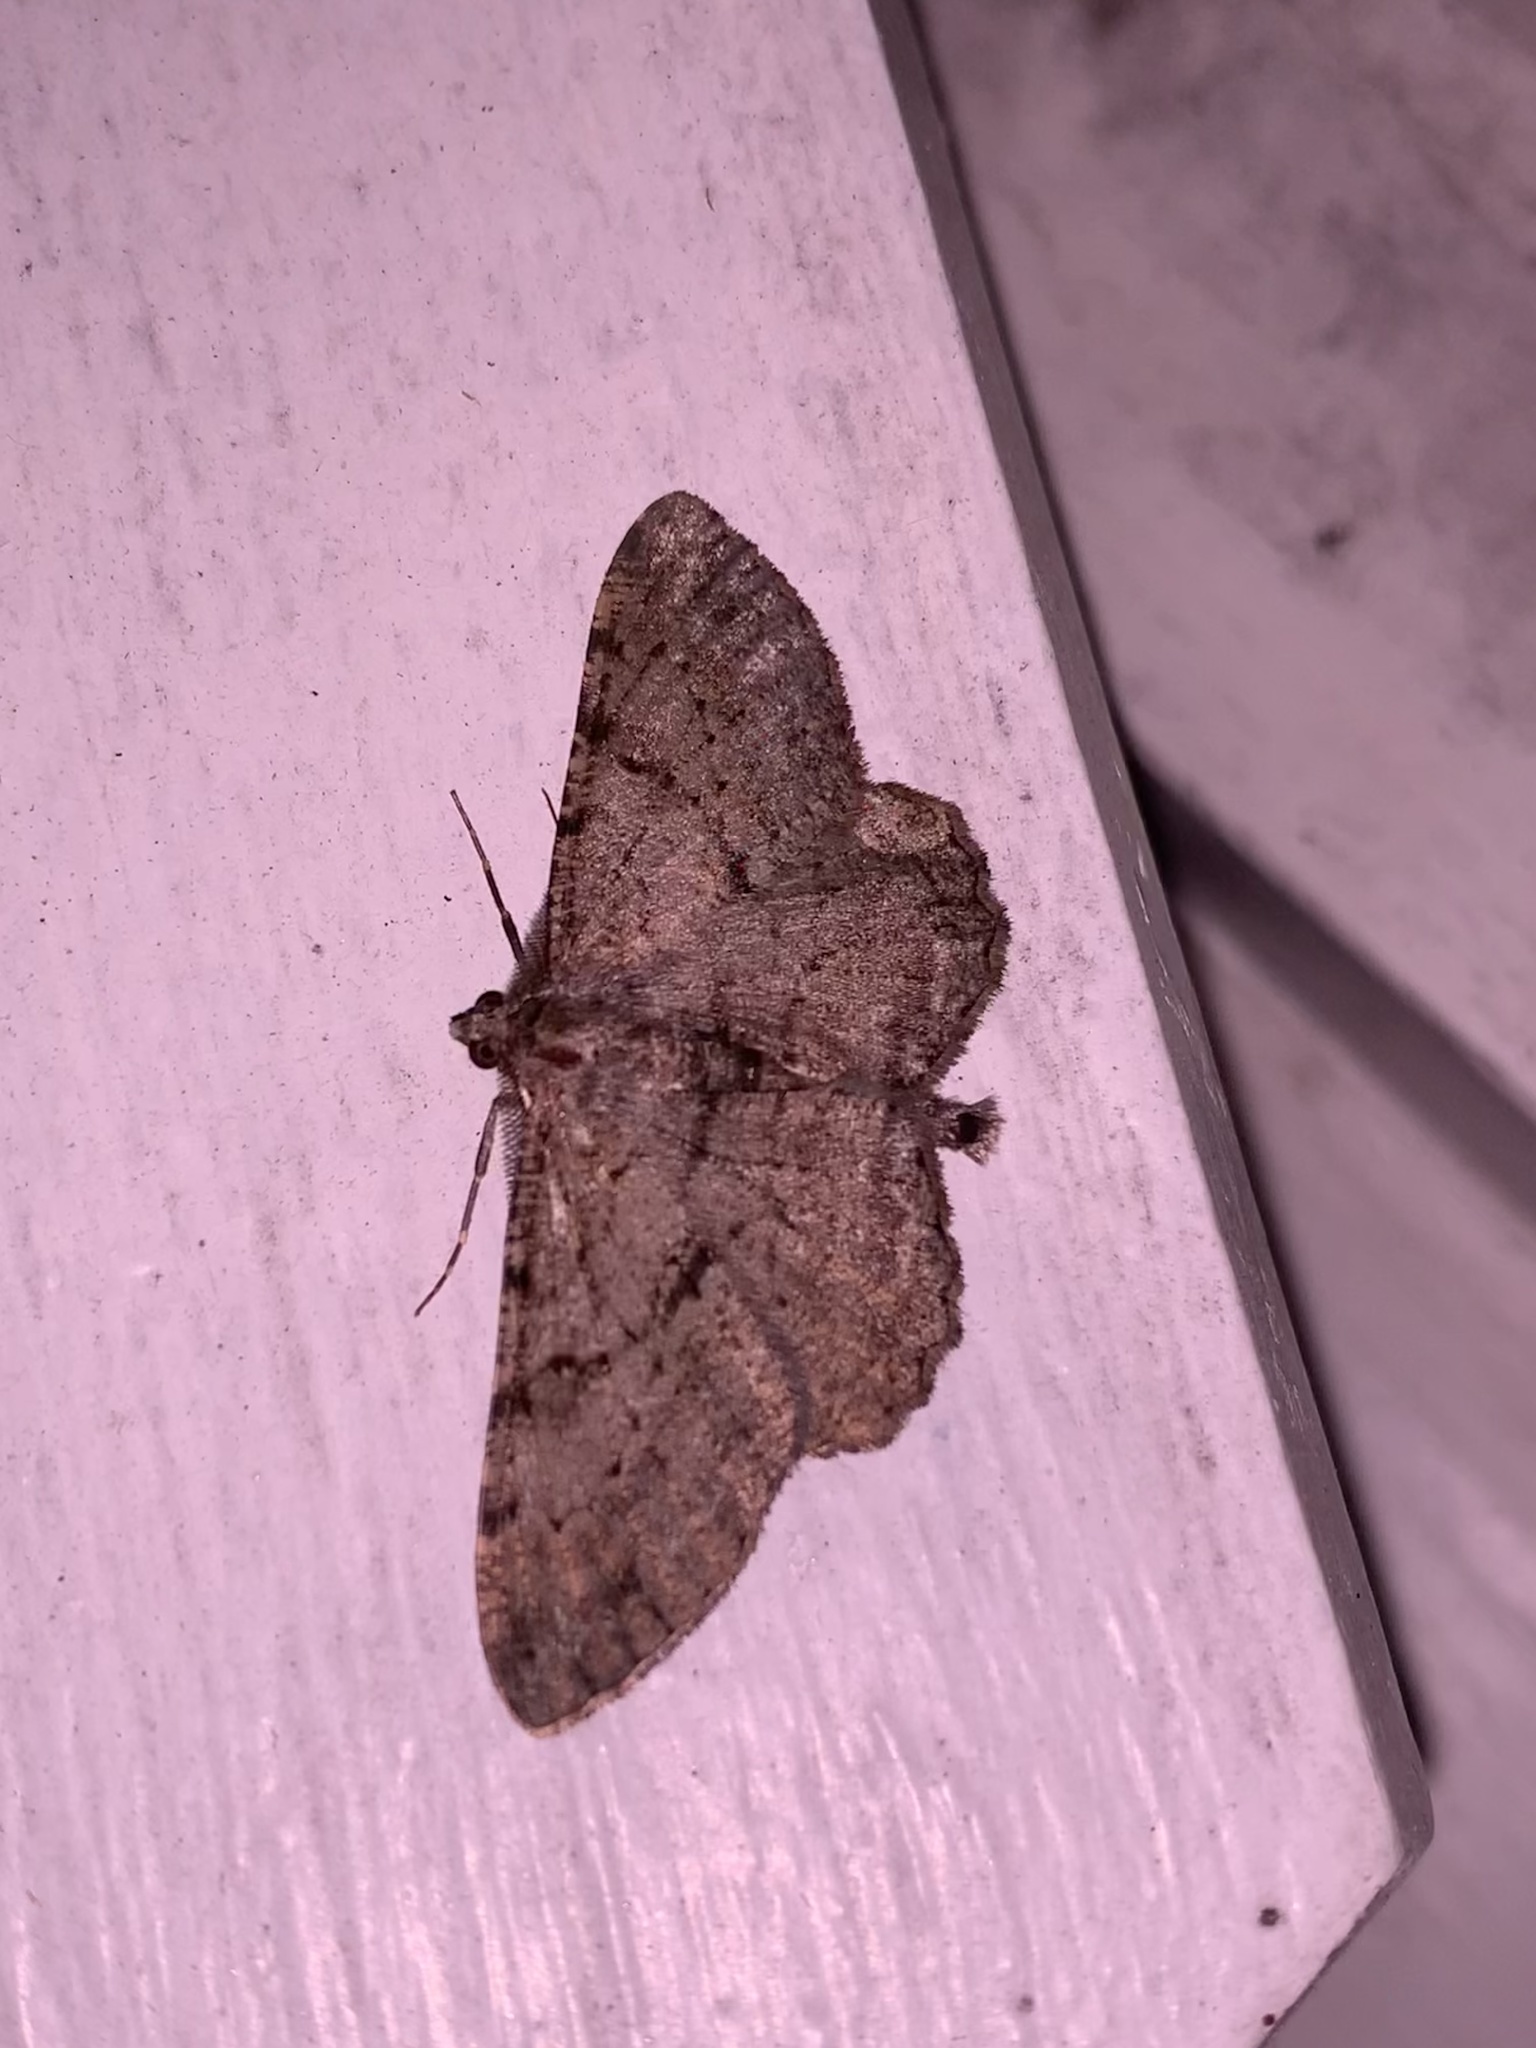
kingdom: Animalia
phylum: Arthropoda
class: Insecta
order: Lepidoptera
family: Geometridae
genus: Peribatodes
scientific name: Peribatodes rhomboidaria
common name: Willow beauty
